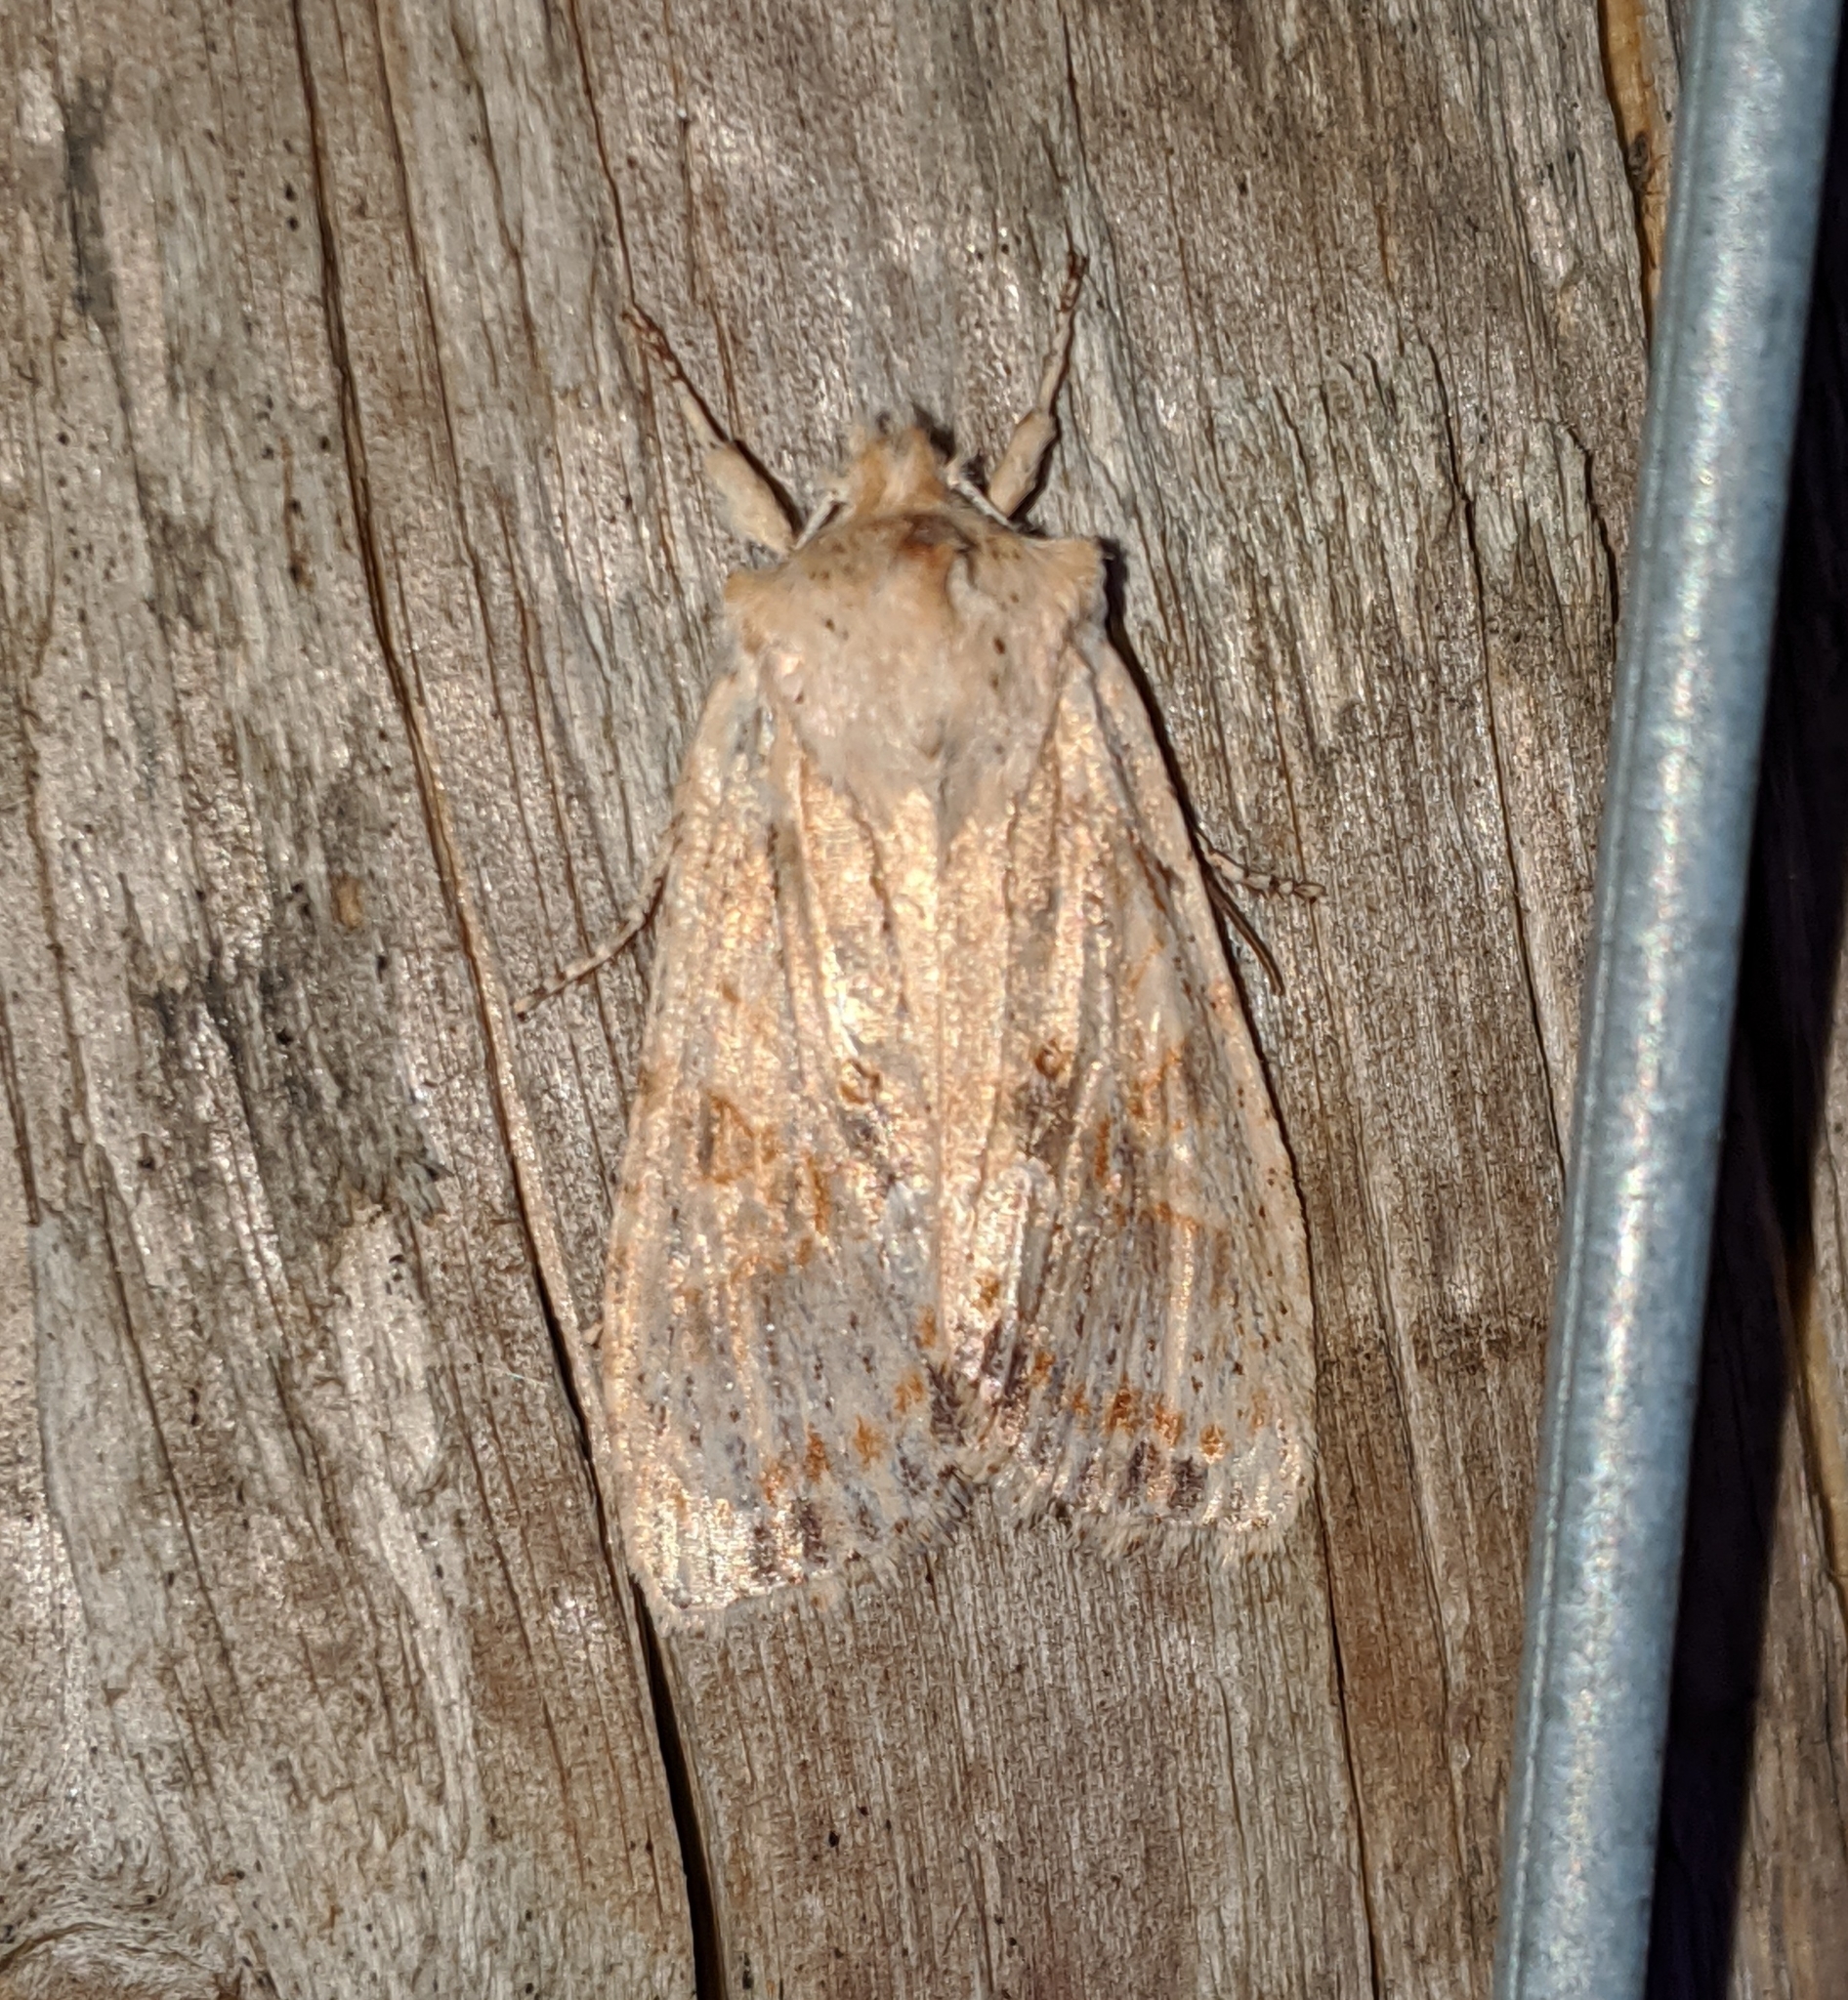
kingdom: Animalia
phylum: Arthropoda
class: Insecta
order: Lepidoptera
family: Noctuidae
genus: Lithophane
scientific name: Lithophane innominata
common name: Nameless pinion moth
